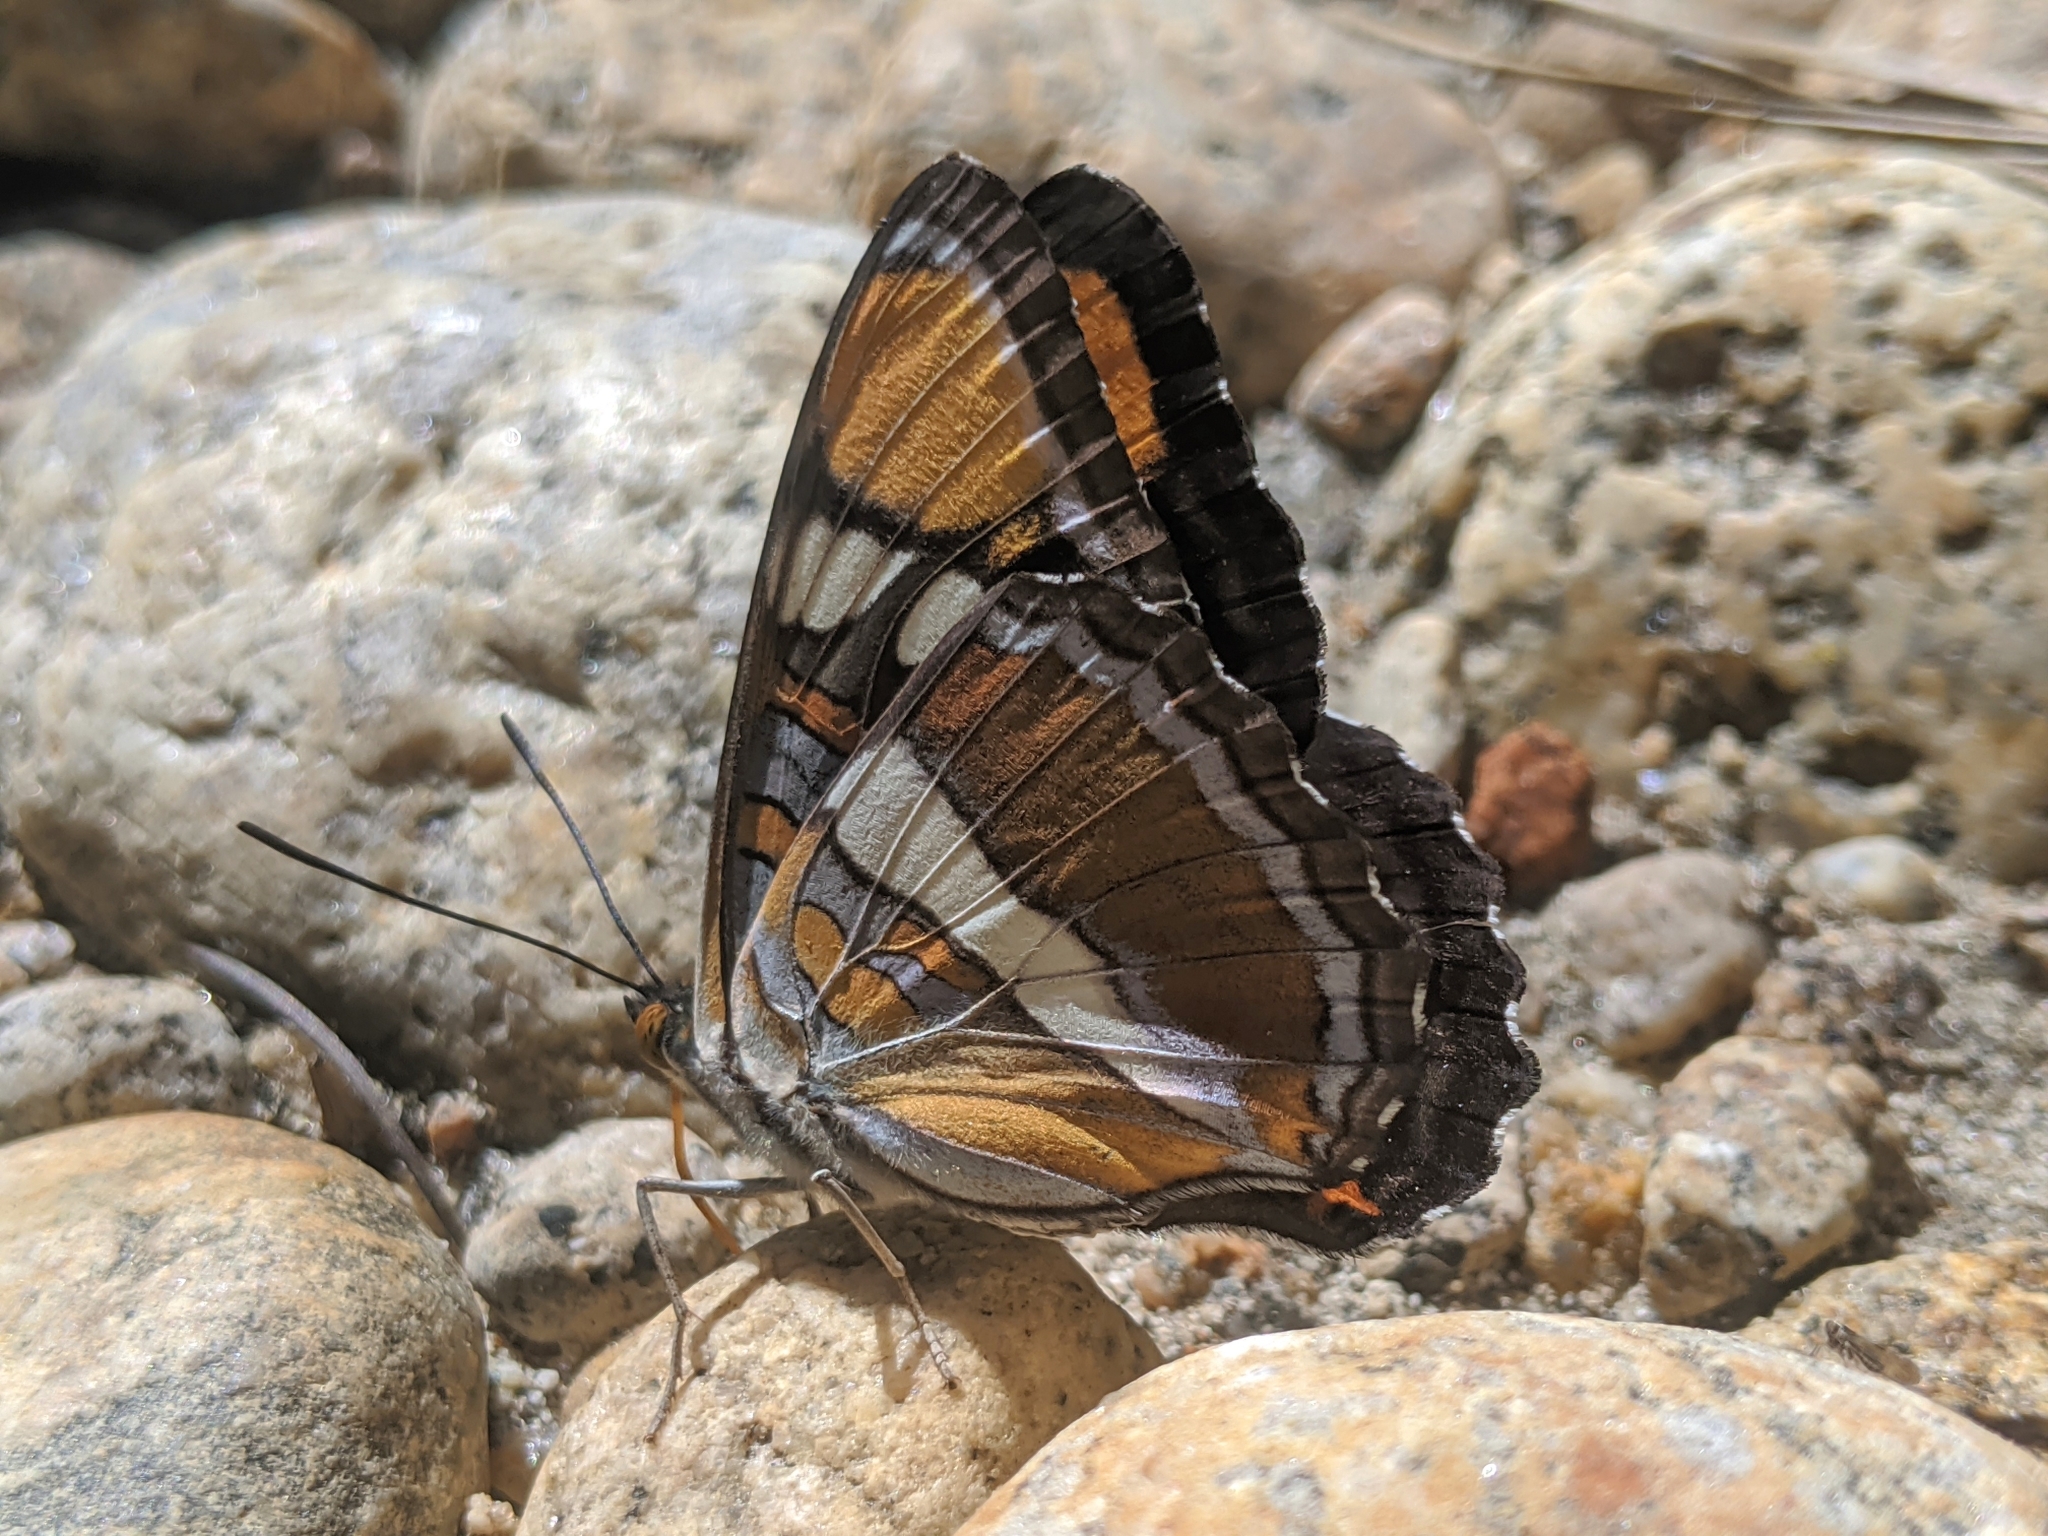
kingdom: Animalia
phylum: Arthropoda
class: Insecta
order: Lepidoptera
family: Nymphalidae
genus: Limenitis
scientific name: Limenitis bredowii
